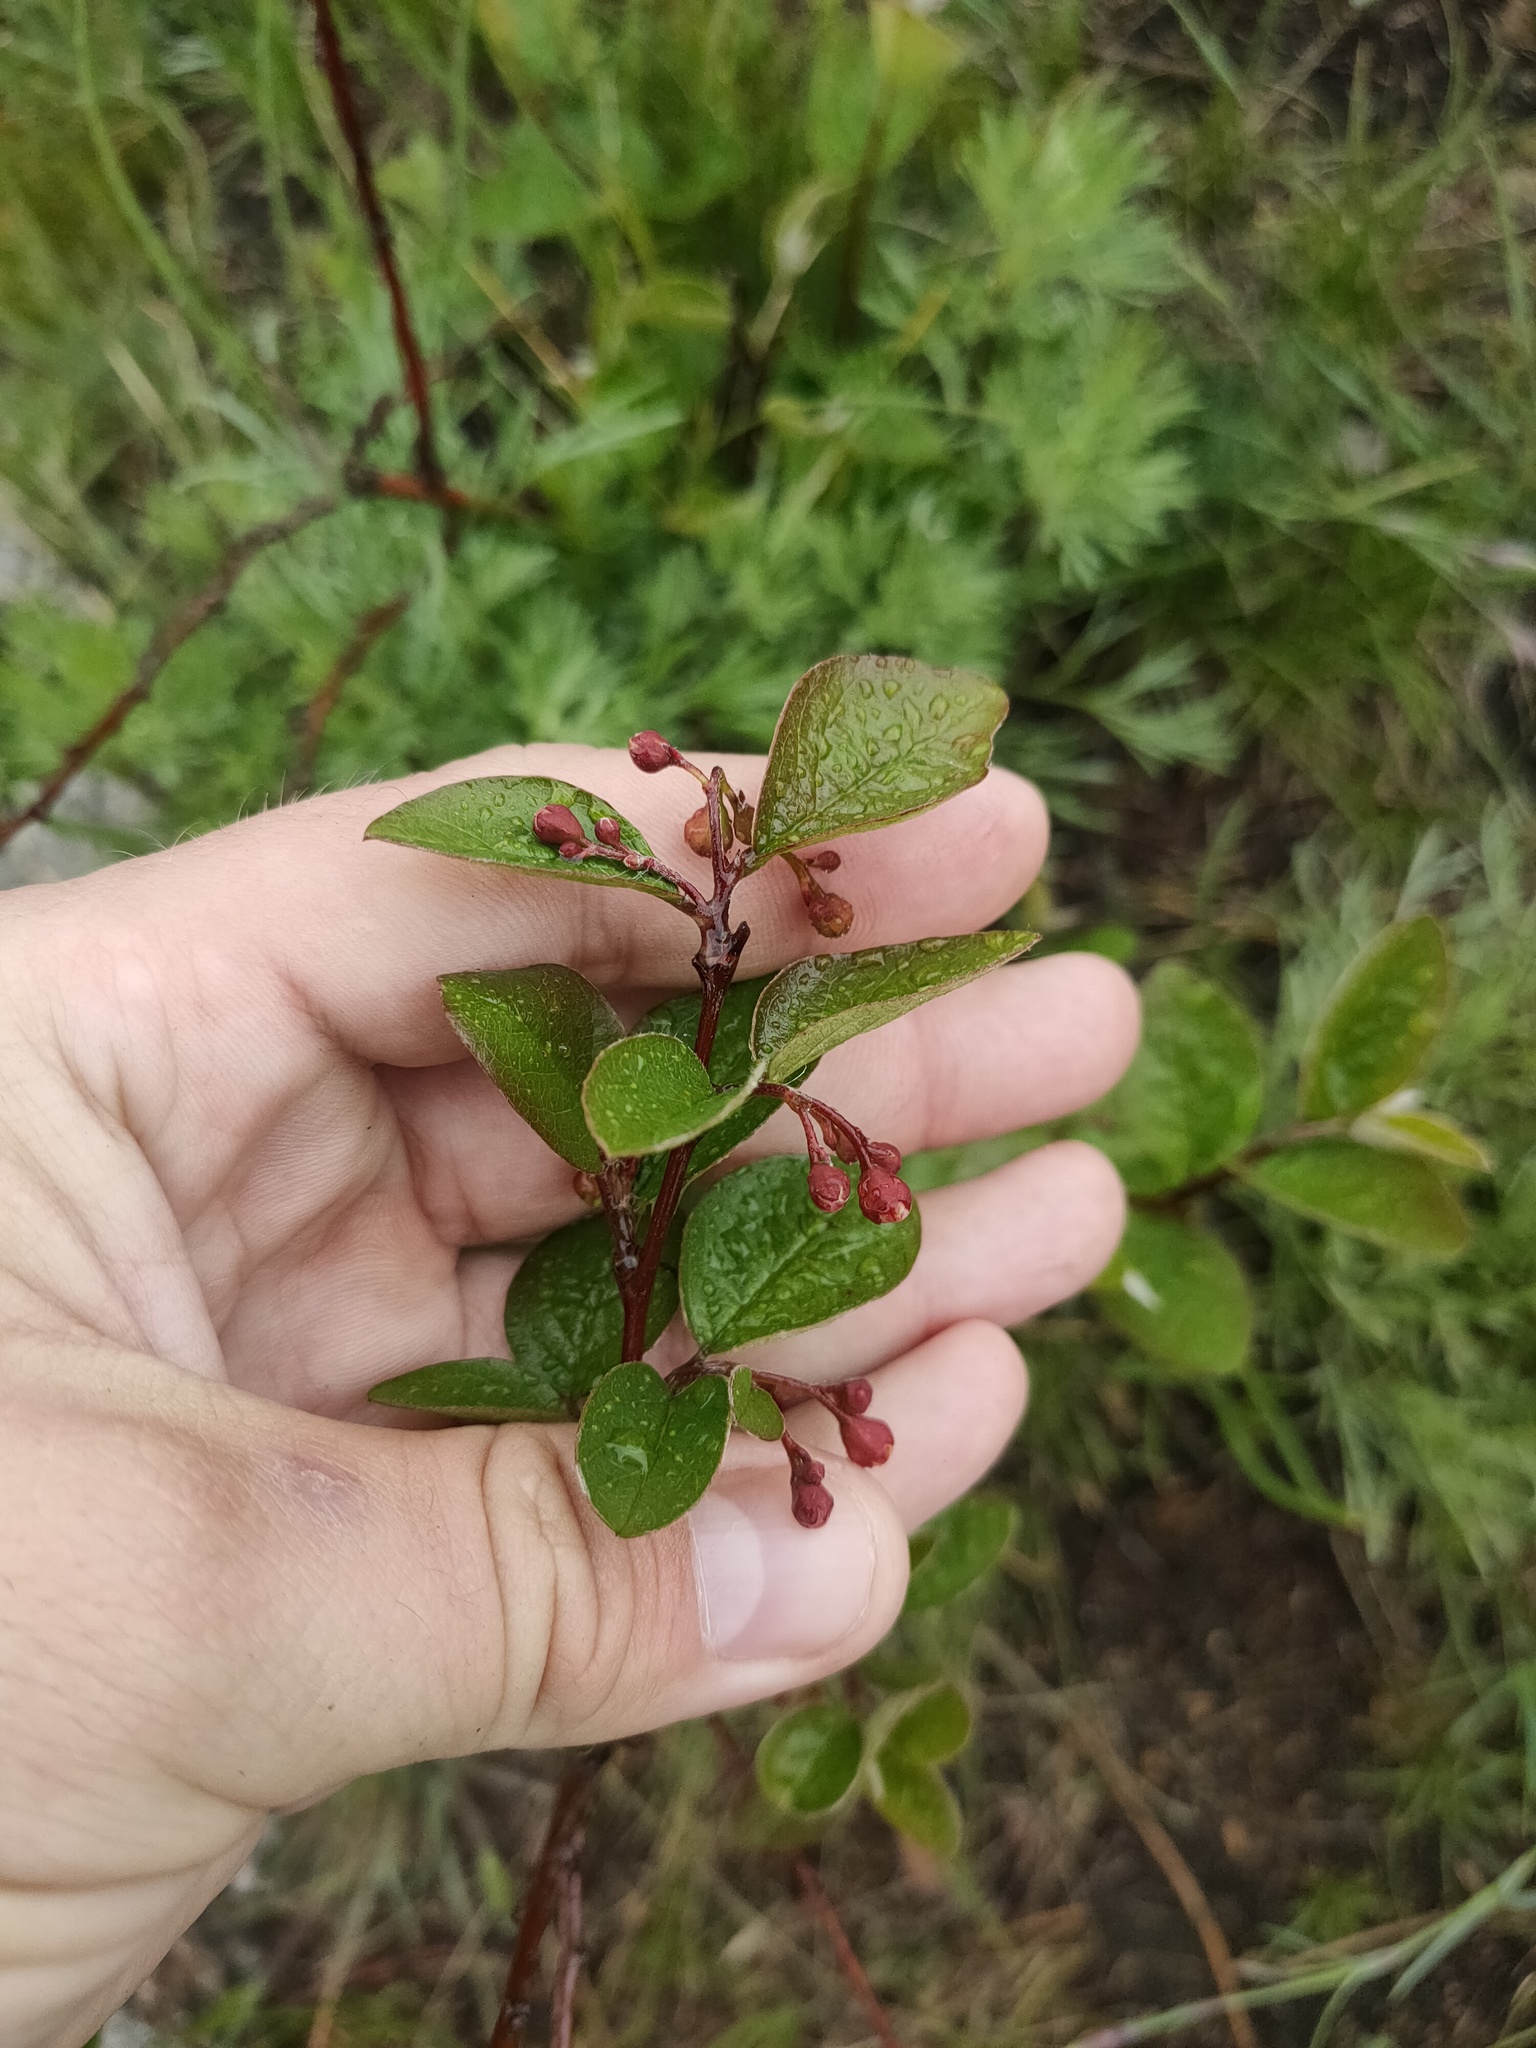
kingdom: Plantae
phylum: Tracheophyta
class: Magnoliopsida
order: Rosales
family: Rosaceae
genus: Cotoneaster
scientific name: Cotoneaster melanocarpus
